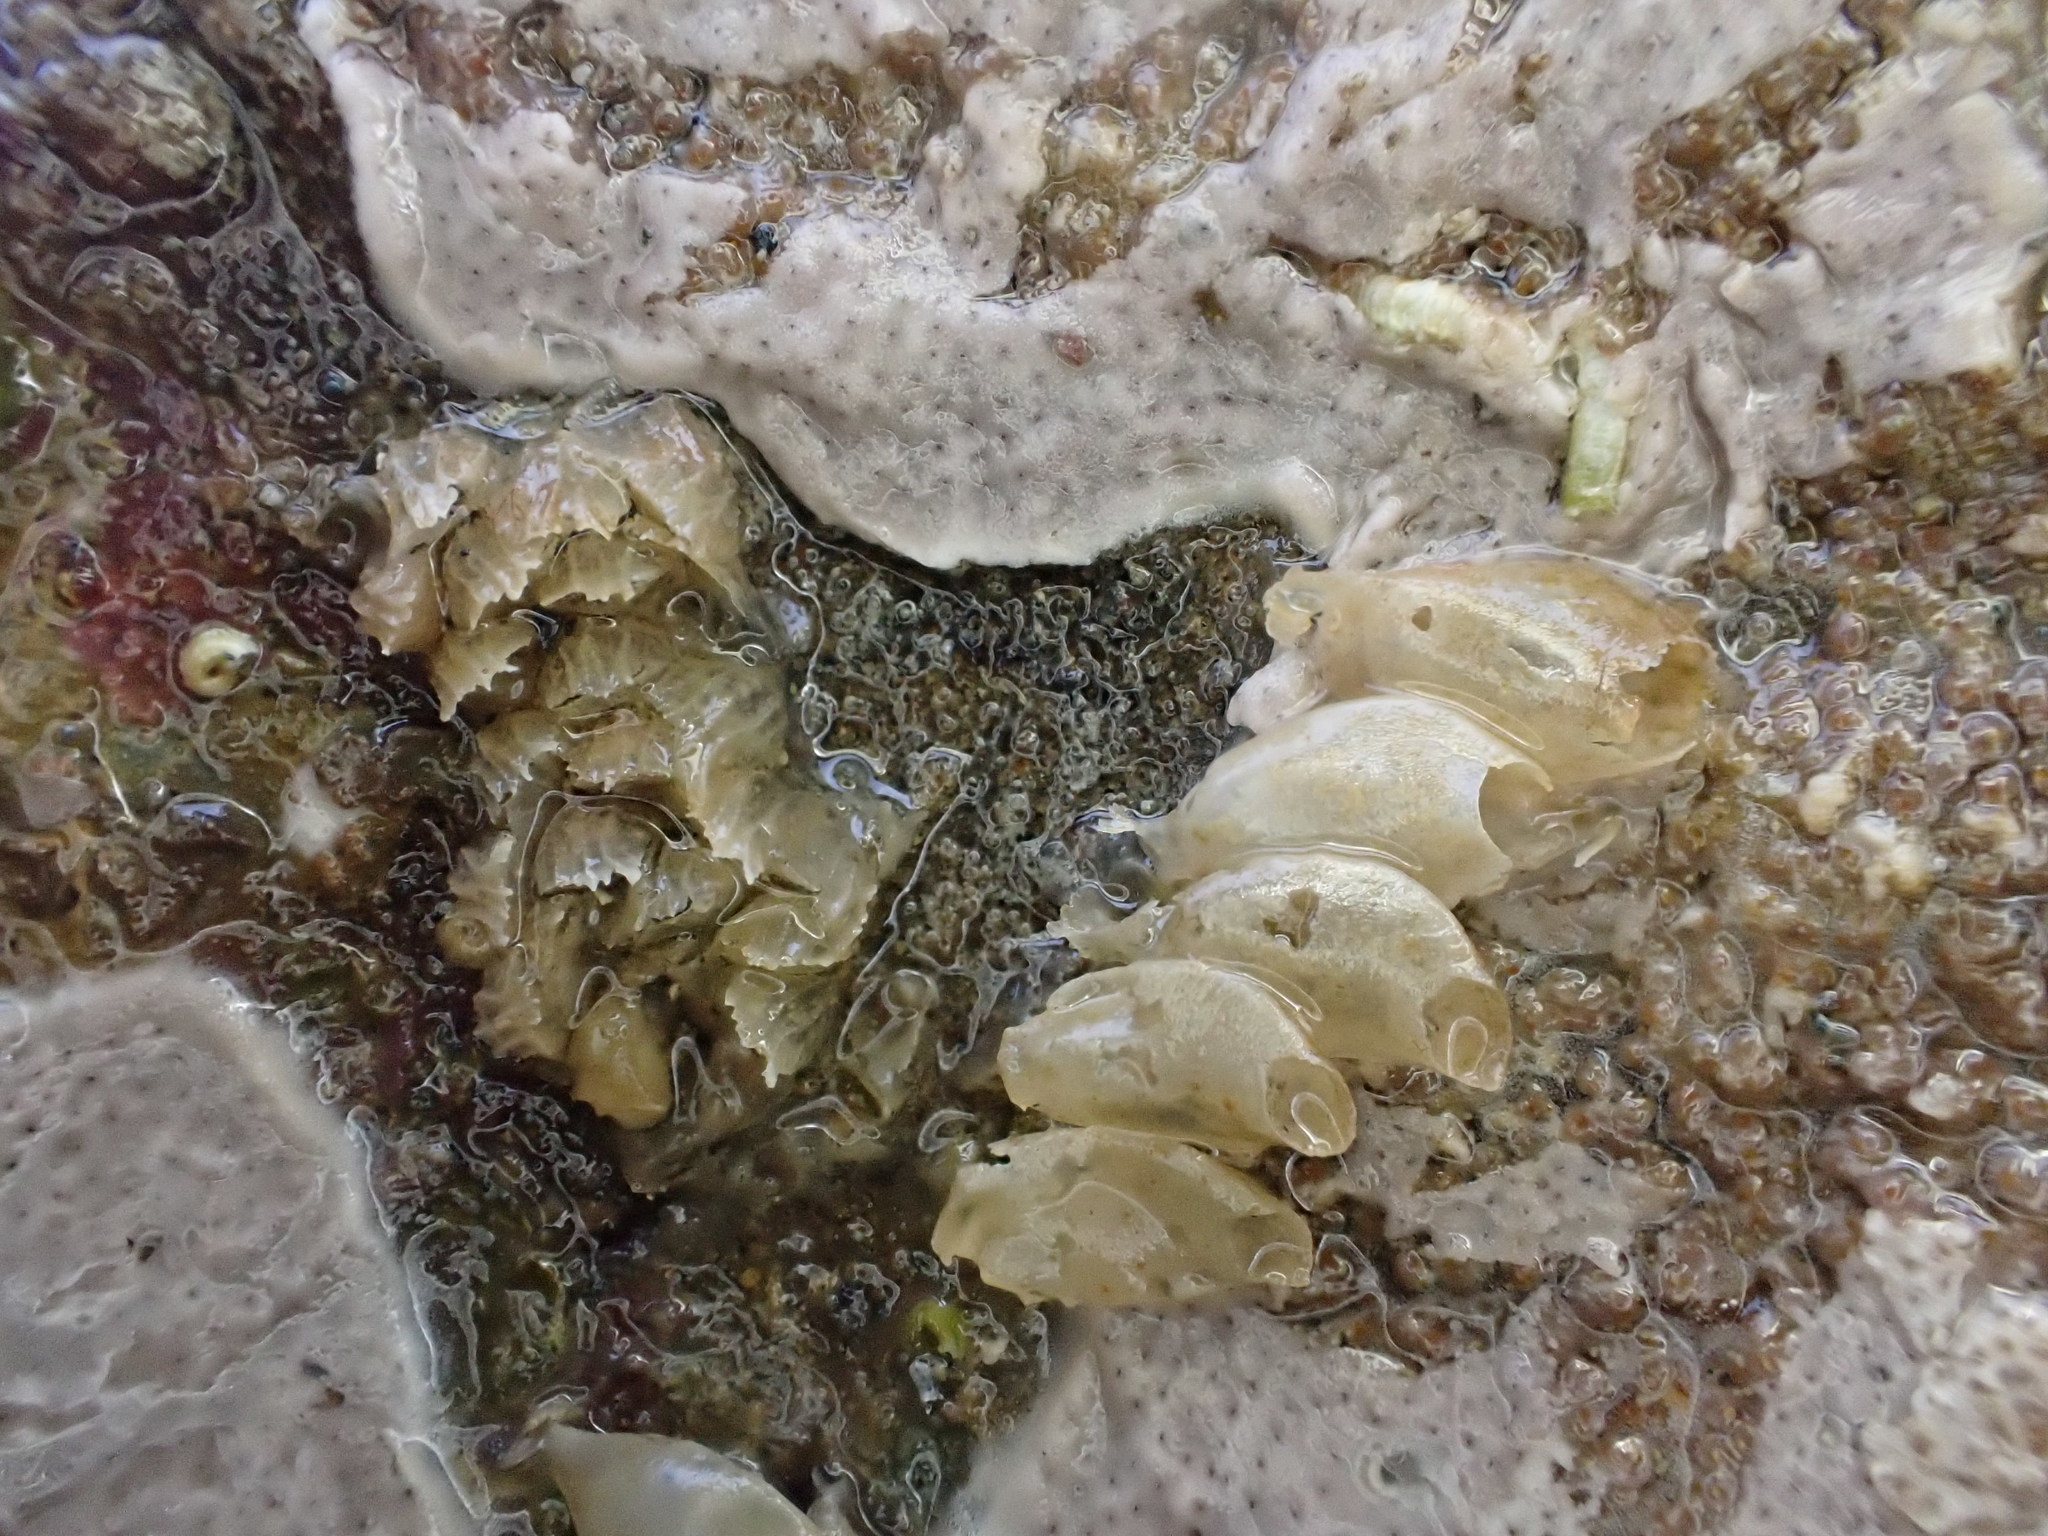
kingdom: Animalia
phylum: Mollusca
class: Gastropoda
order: Neogastropoda
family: Cominellidae
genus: Cominella
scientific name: Cominella virgata
